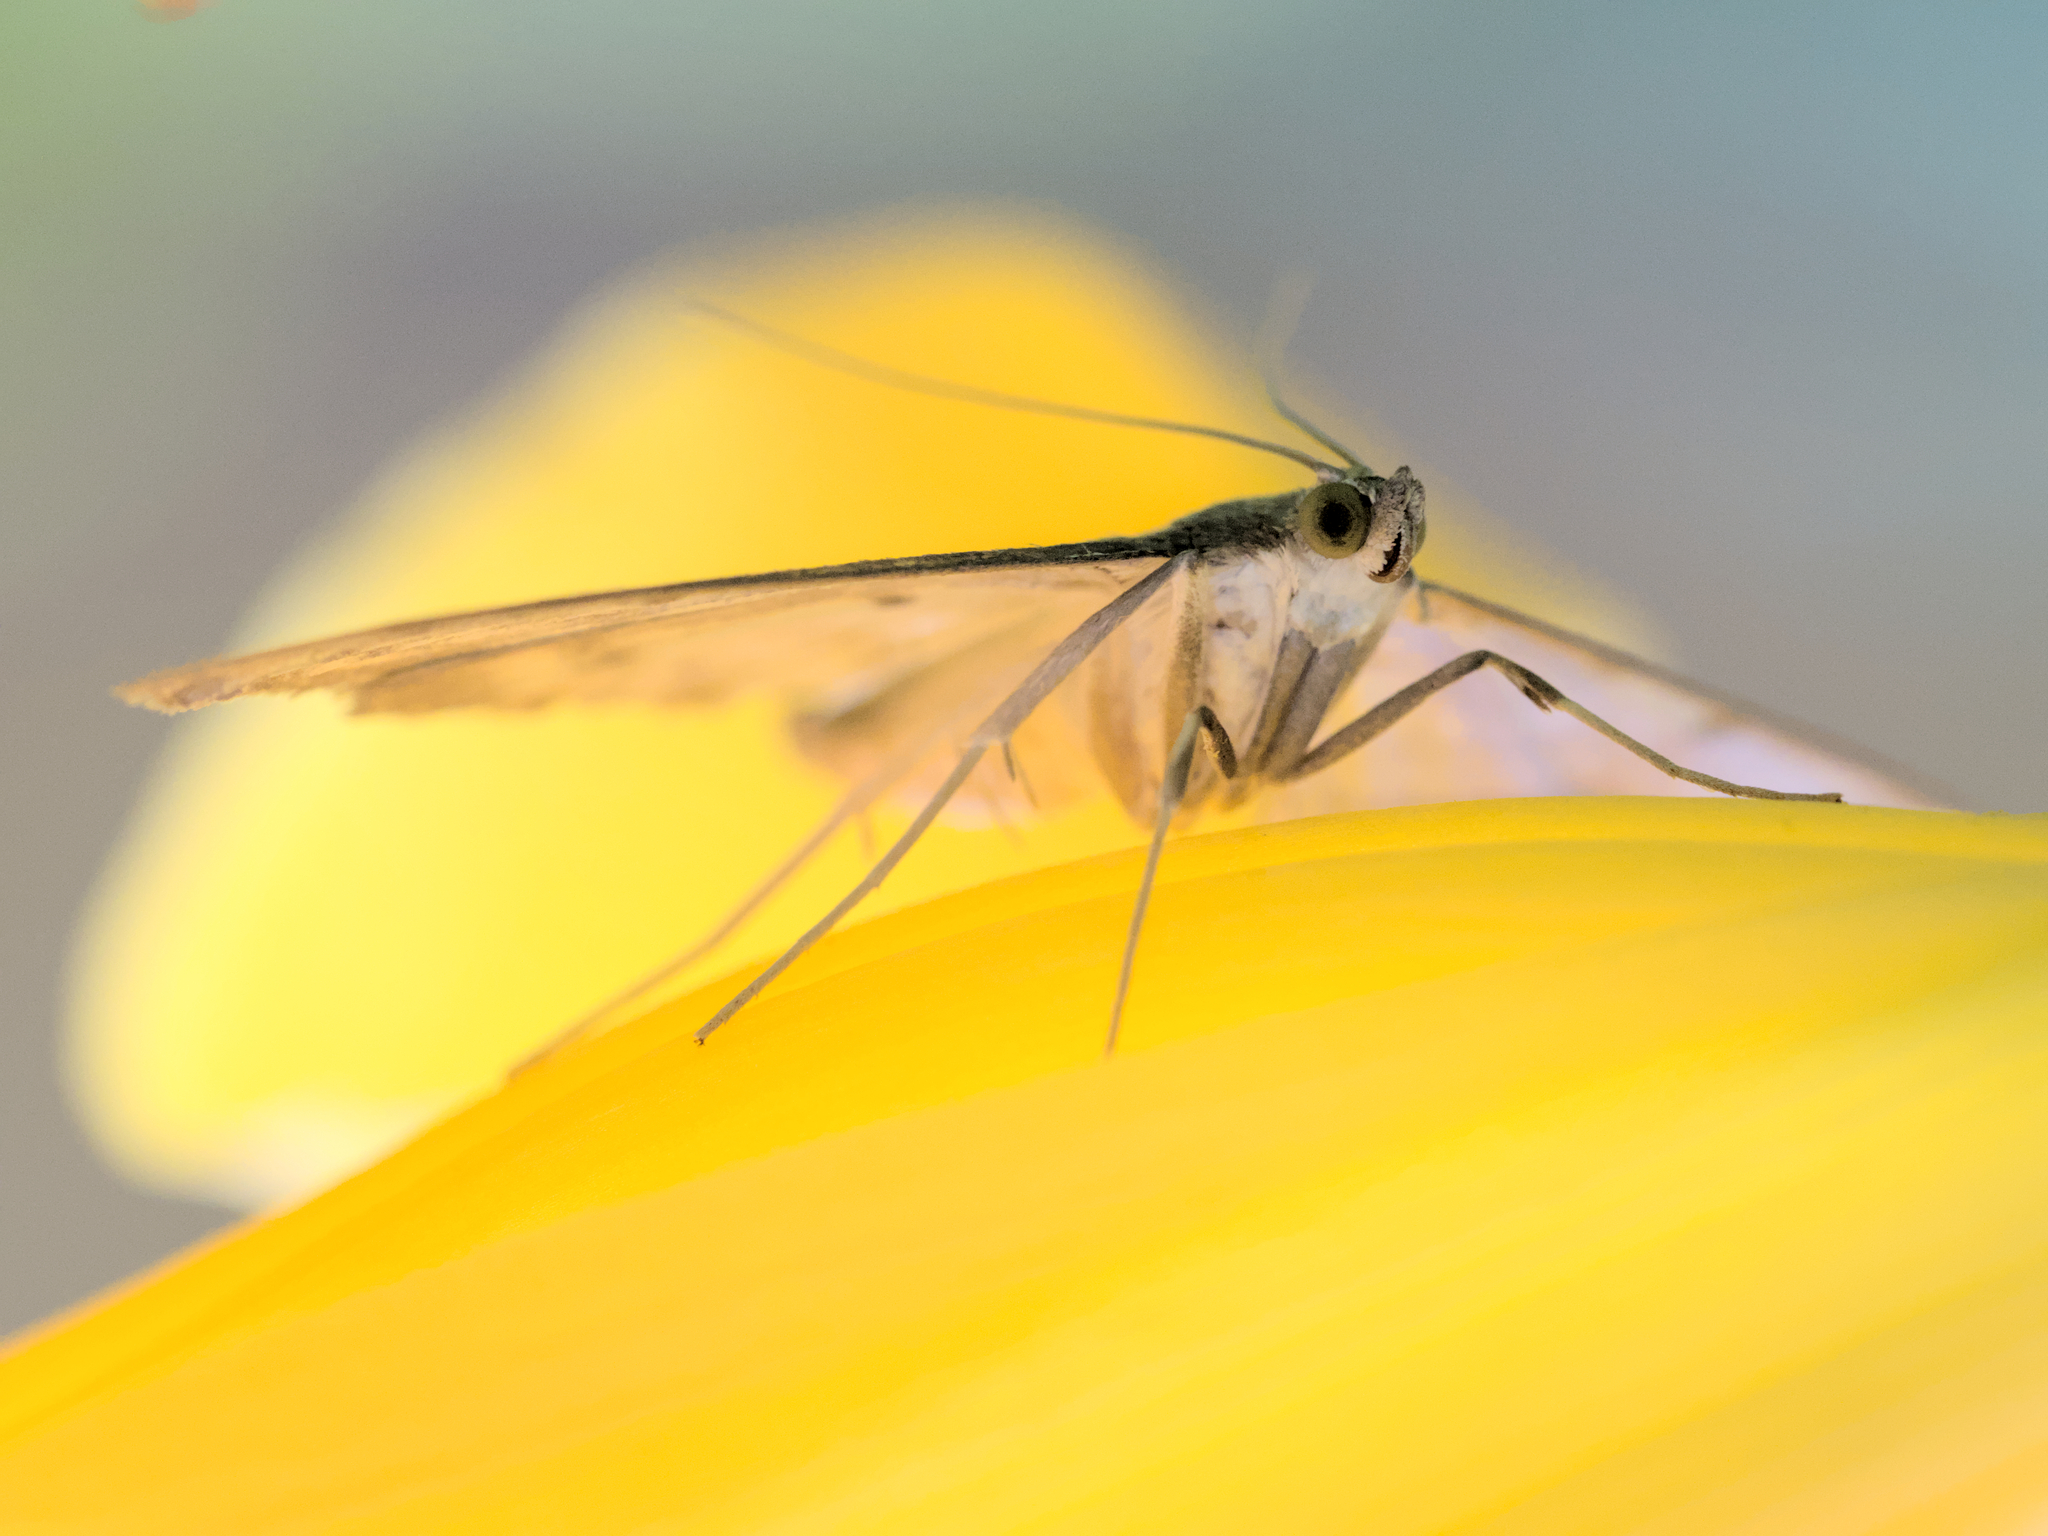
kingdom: Animalia
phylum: Arthropoda
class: Insecta
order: Lepidoptera
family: Crambidae
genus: Patania
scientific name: Patania ruralis
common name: Mother of pearl
